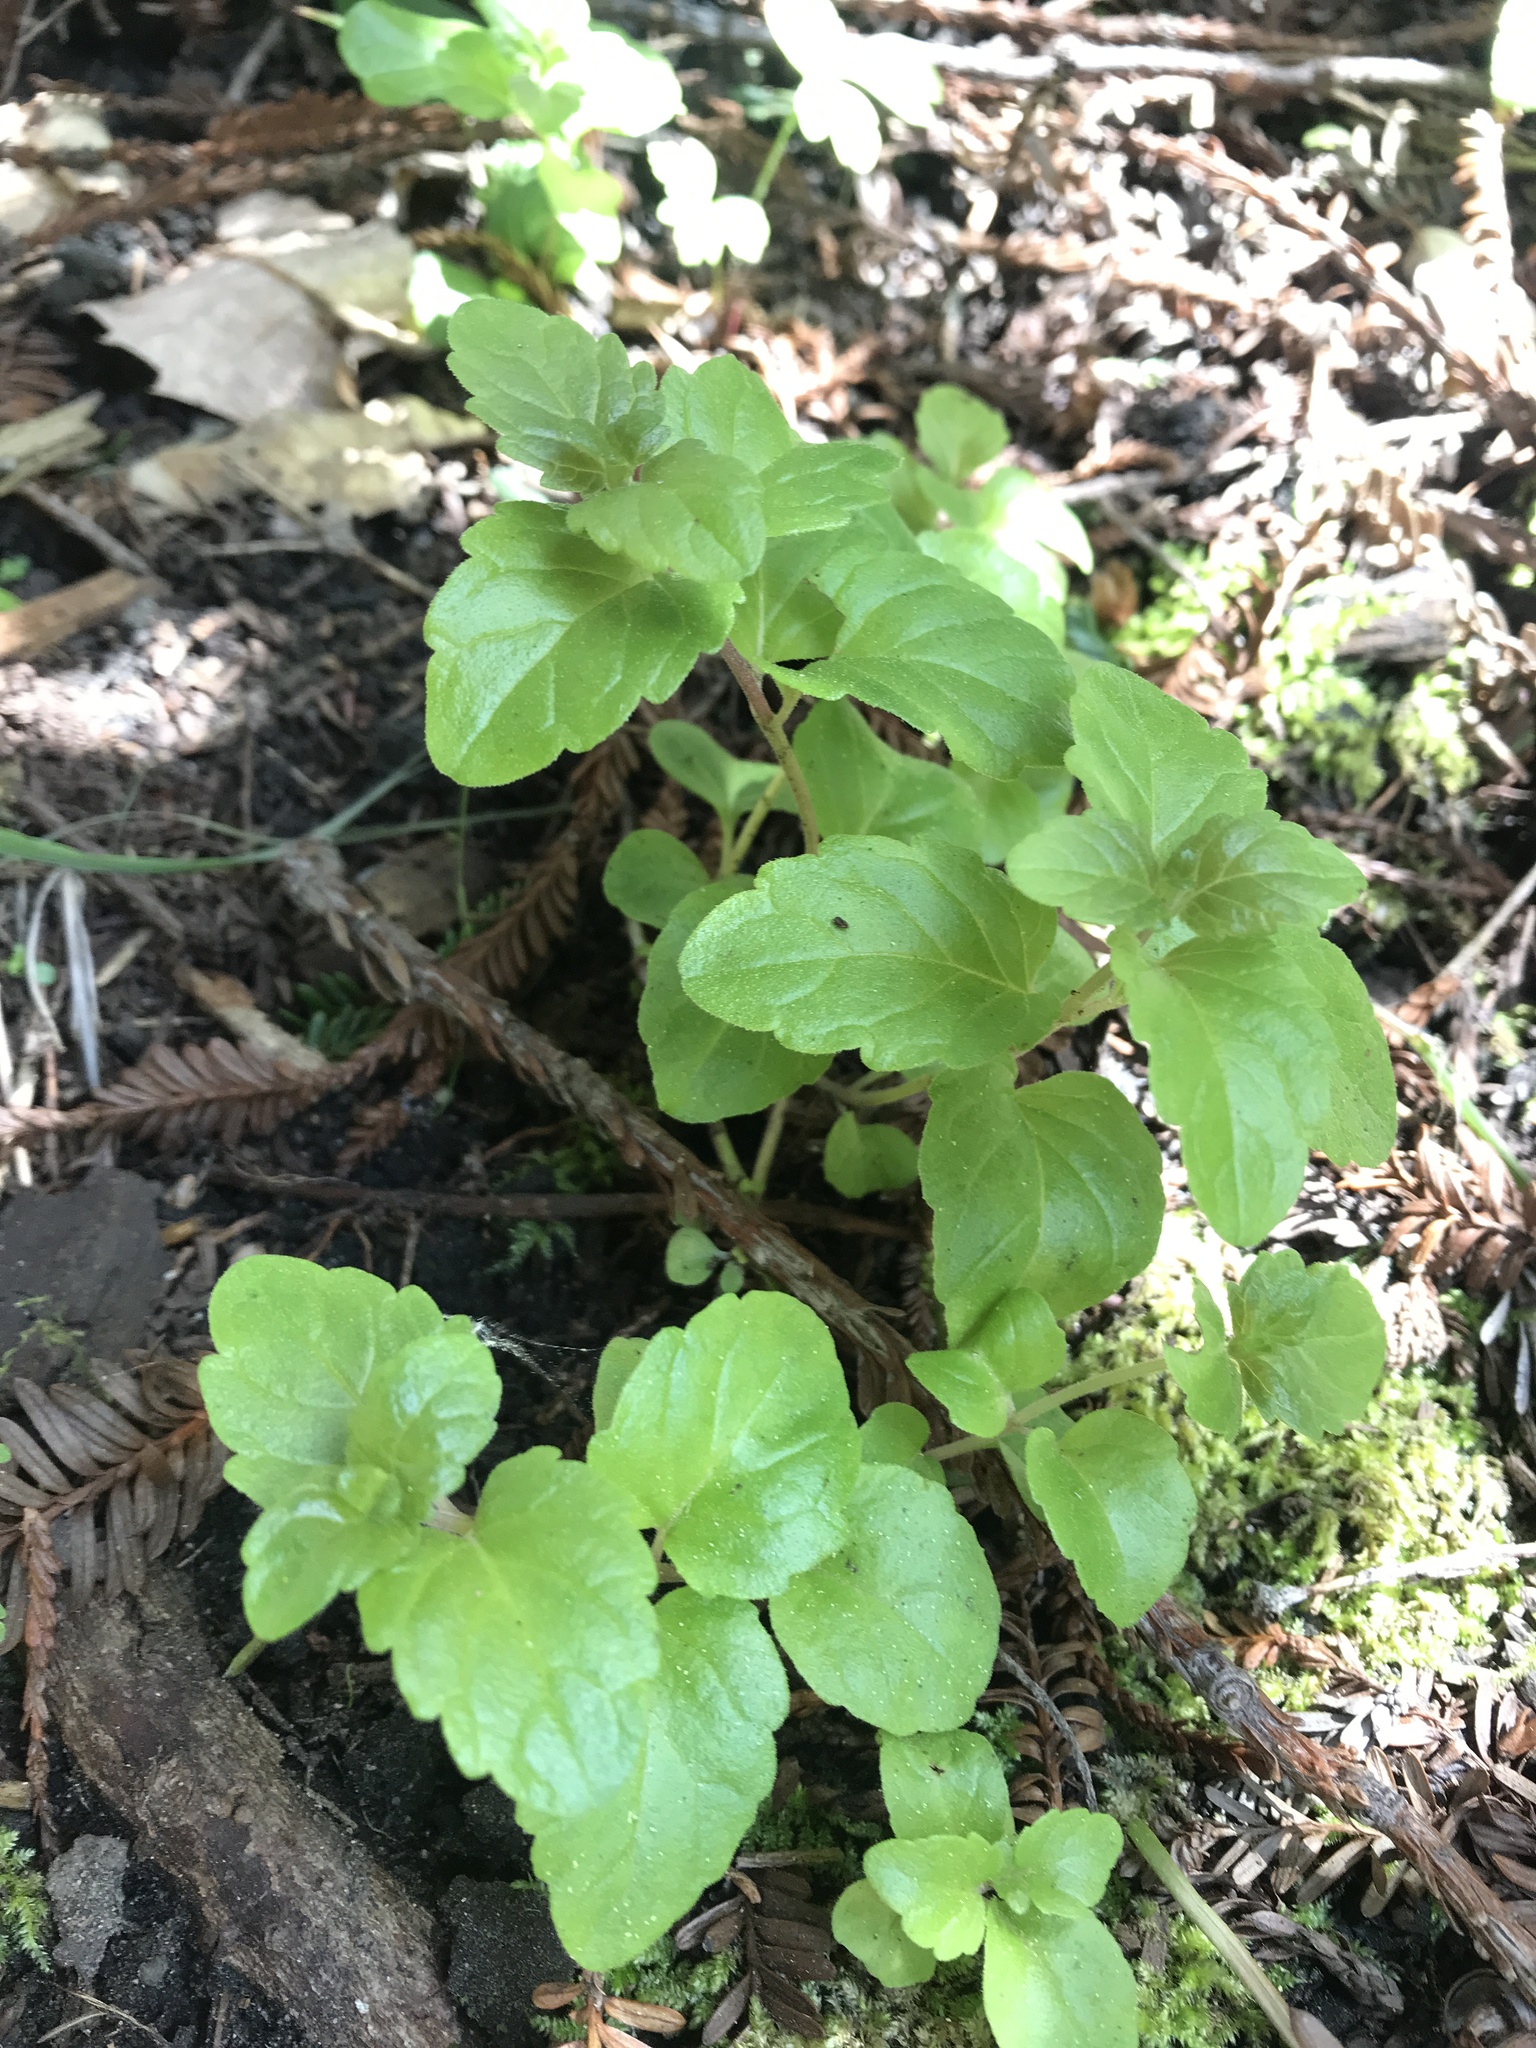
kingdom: Plantae
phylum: Tracheophyta
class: Magnoliopsida
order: Lamiales
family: Lamiaceae
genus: Micromeria
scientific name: Micromeria douglasii
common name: Yerba buena
